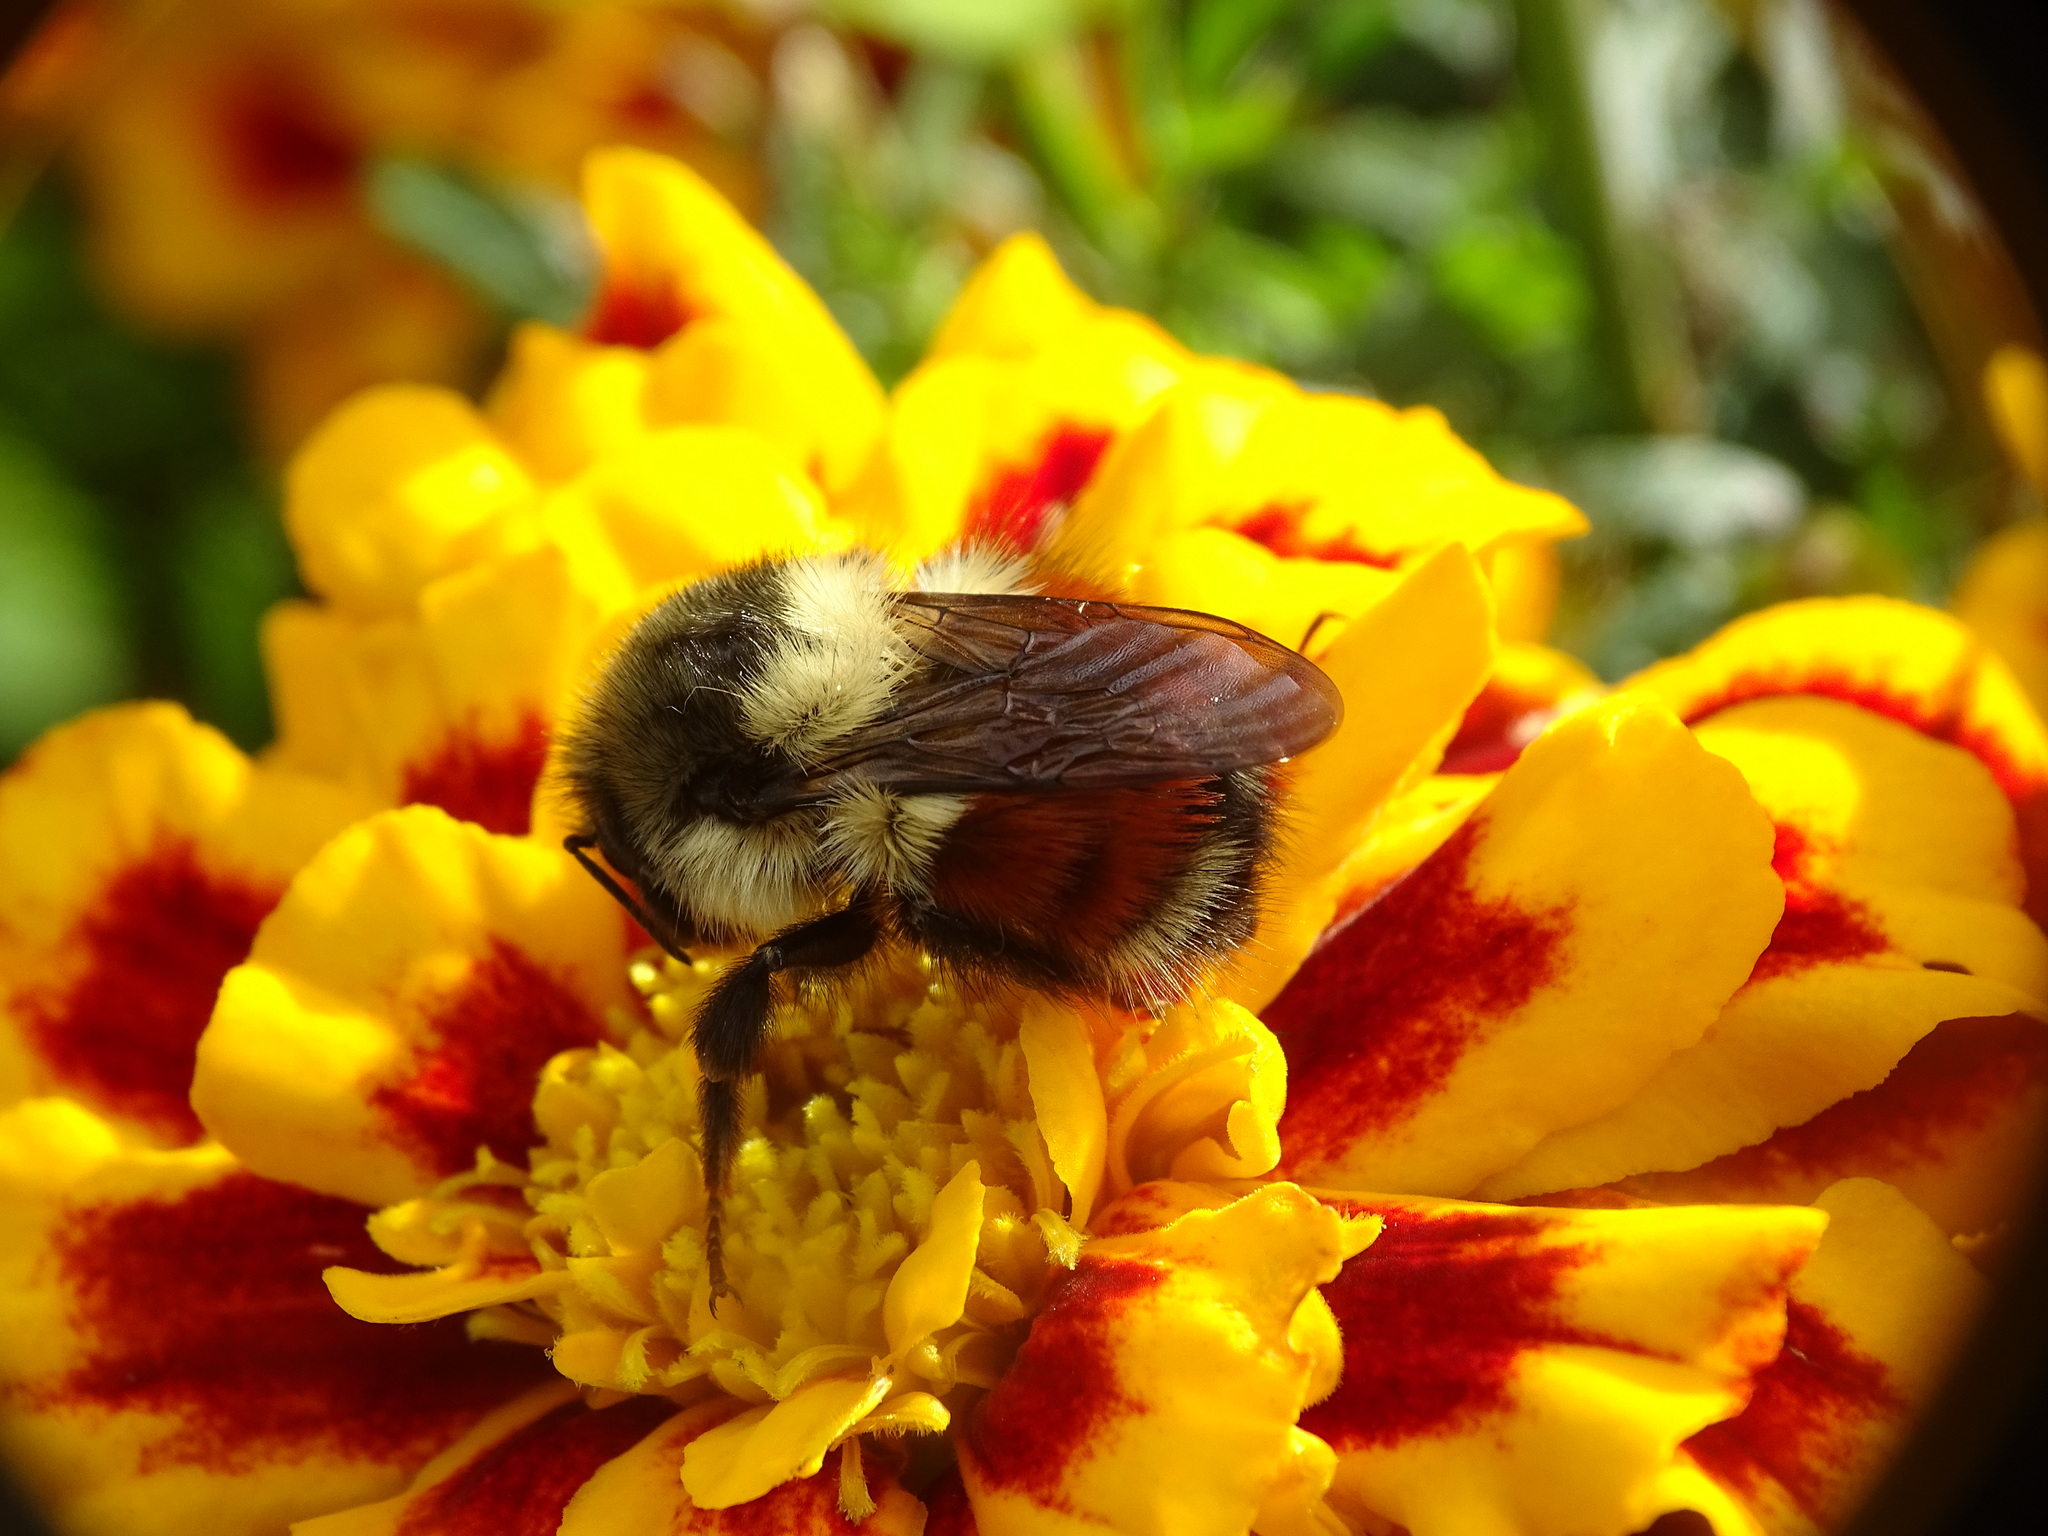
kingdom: Animalia
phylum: Arthropoda
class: Insecta
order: Hymenoptera
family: Apidae
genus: Bombus
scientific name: Bombus melanopygus
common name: Black tail bumble bee
